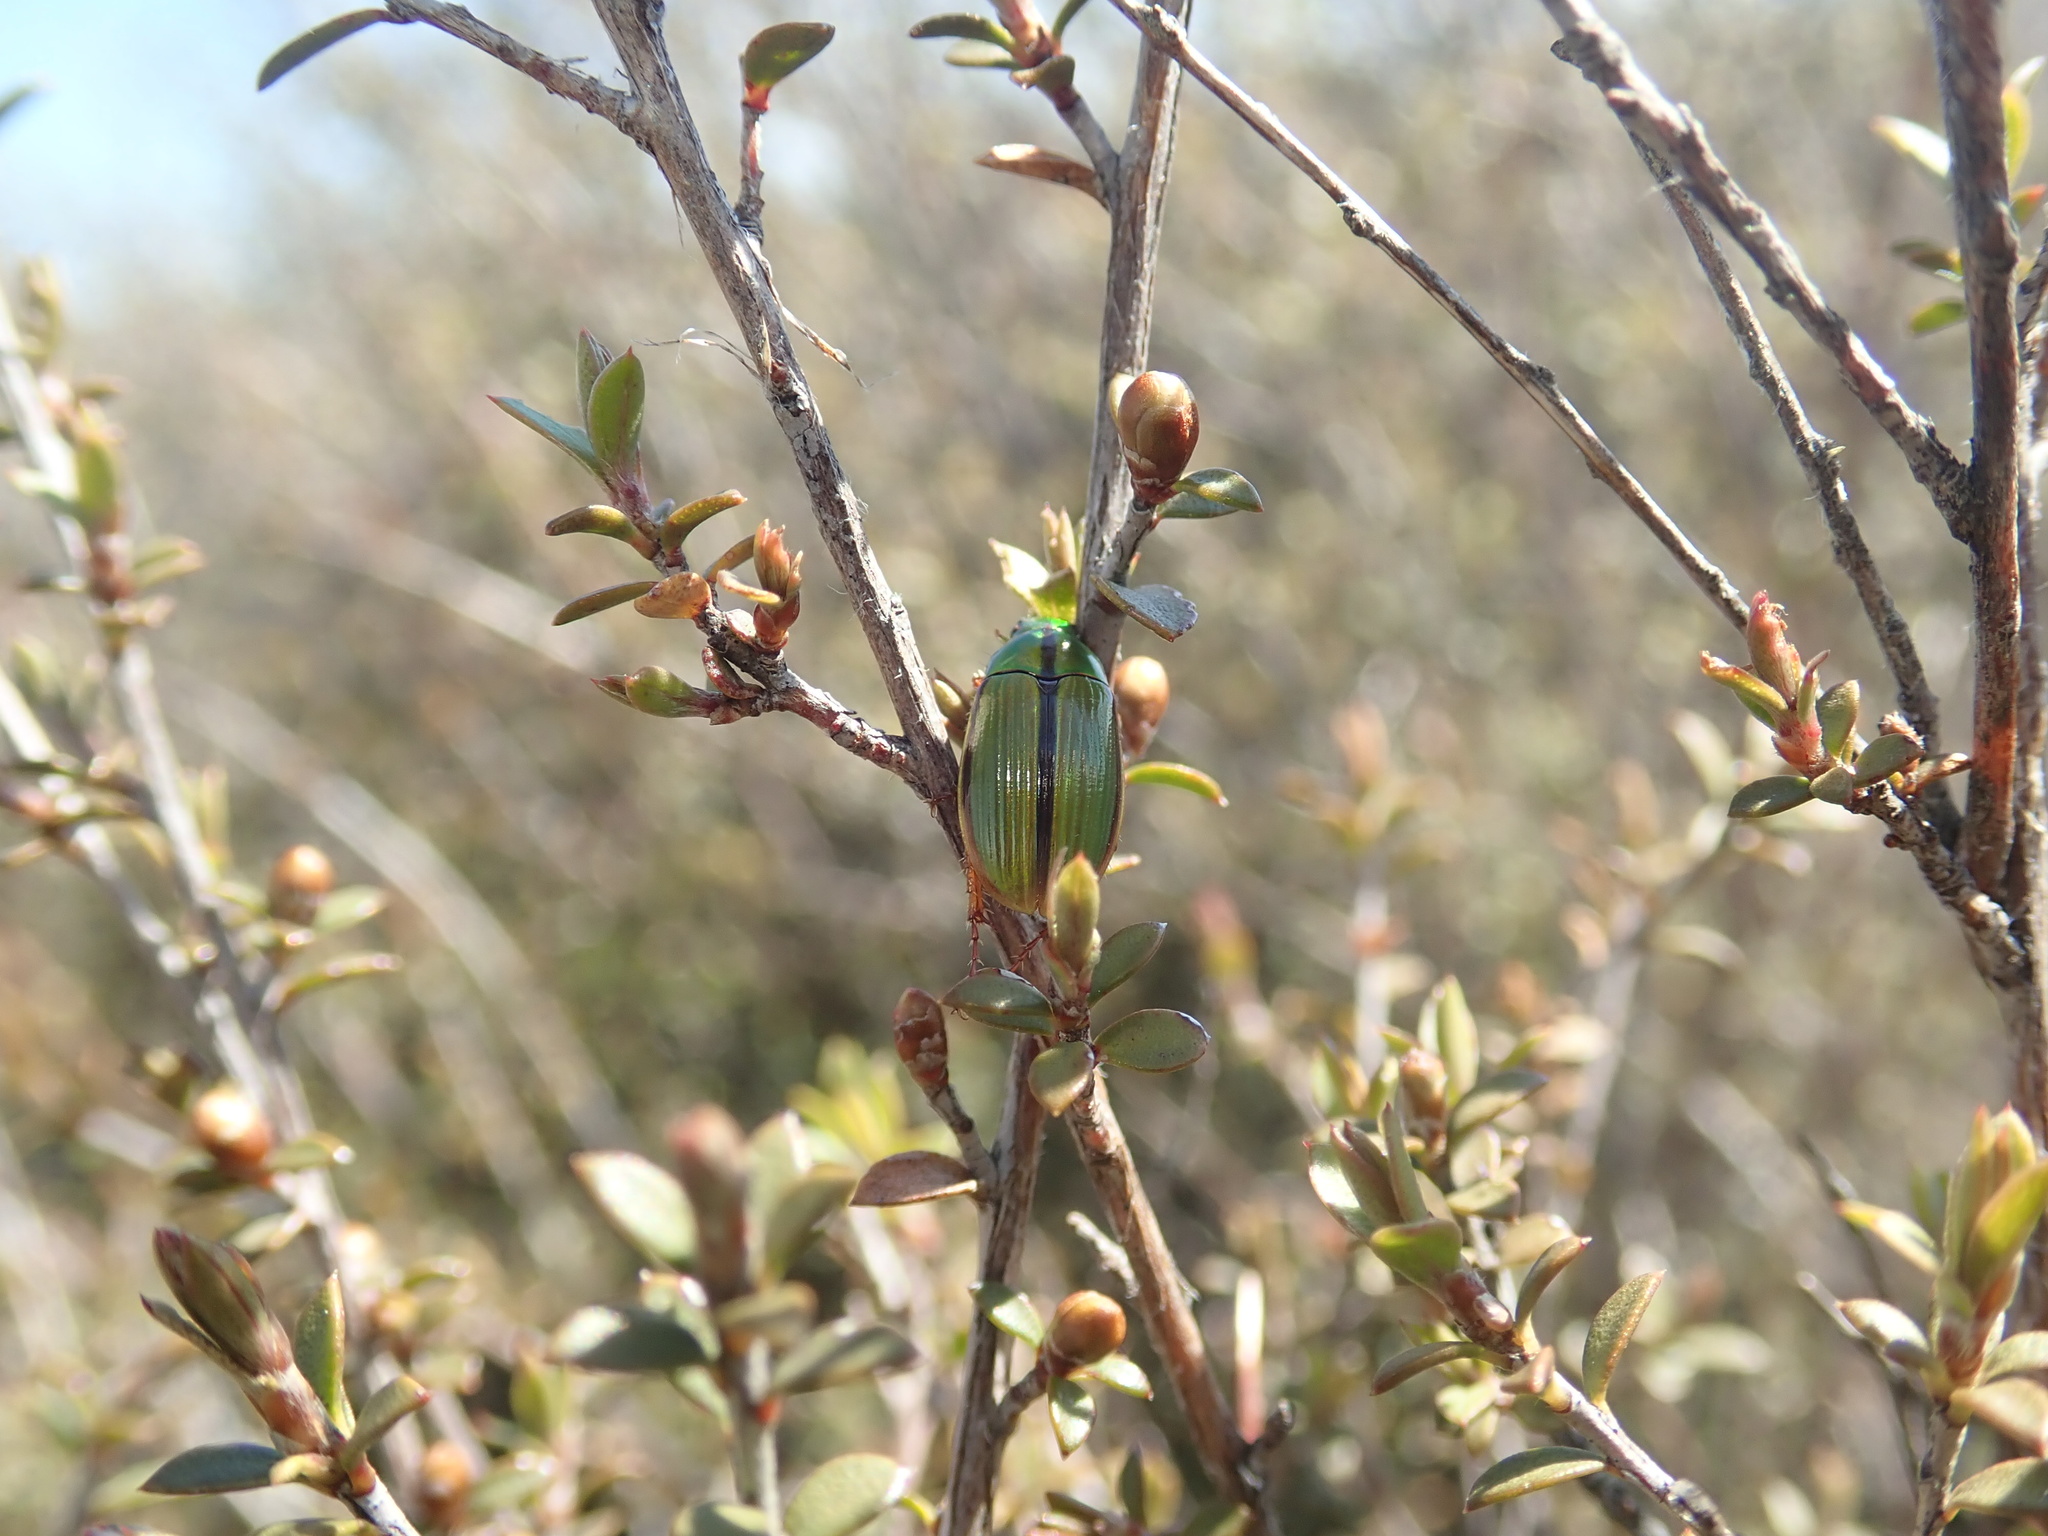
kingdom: Animalia
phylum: Arthropoda
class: Insecta
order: Coleoptera
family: Scarabaeidae
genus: Pyronota
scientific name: Pyronota festiva
